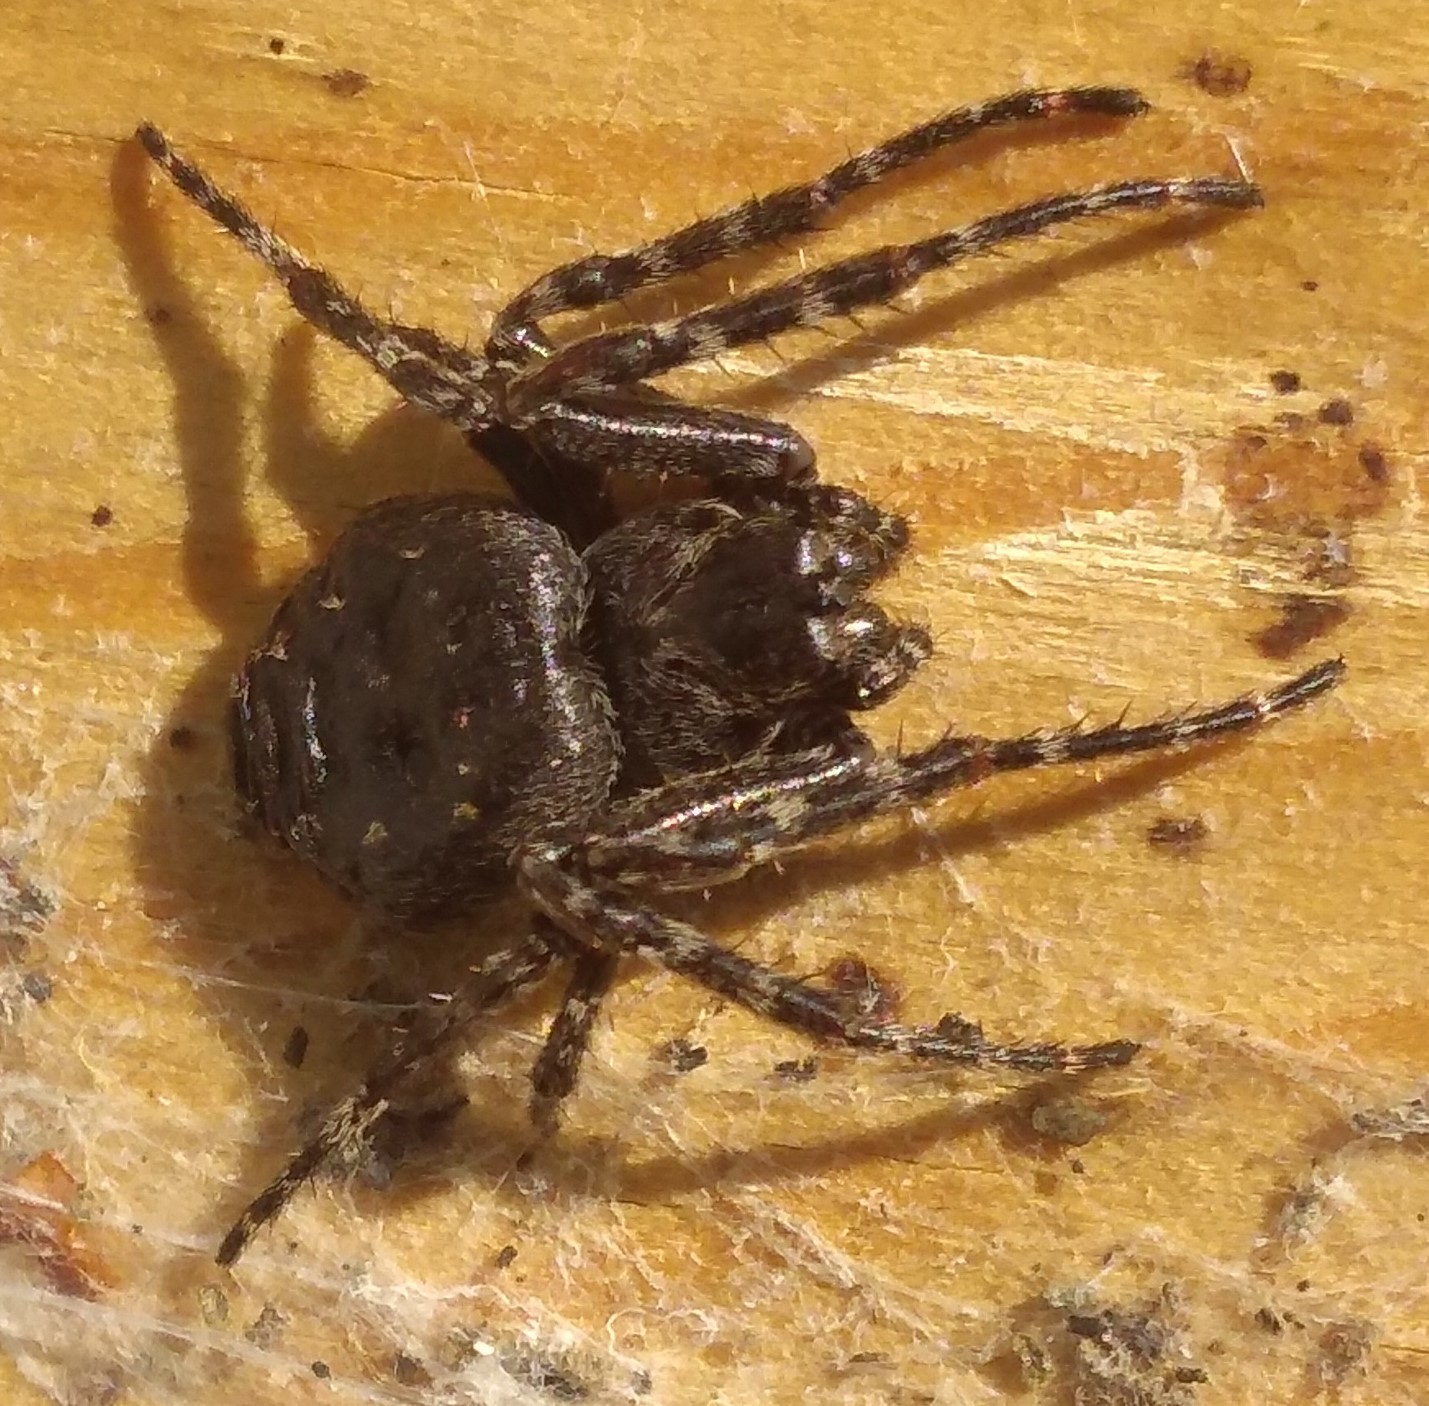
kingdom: Animalia
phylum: Arthropoda
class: Arachnida
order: Araneae
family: Araneidae
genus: Nuctenea
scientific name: Nuctenea umbratica
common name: Toad spider
